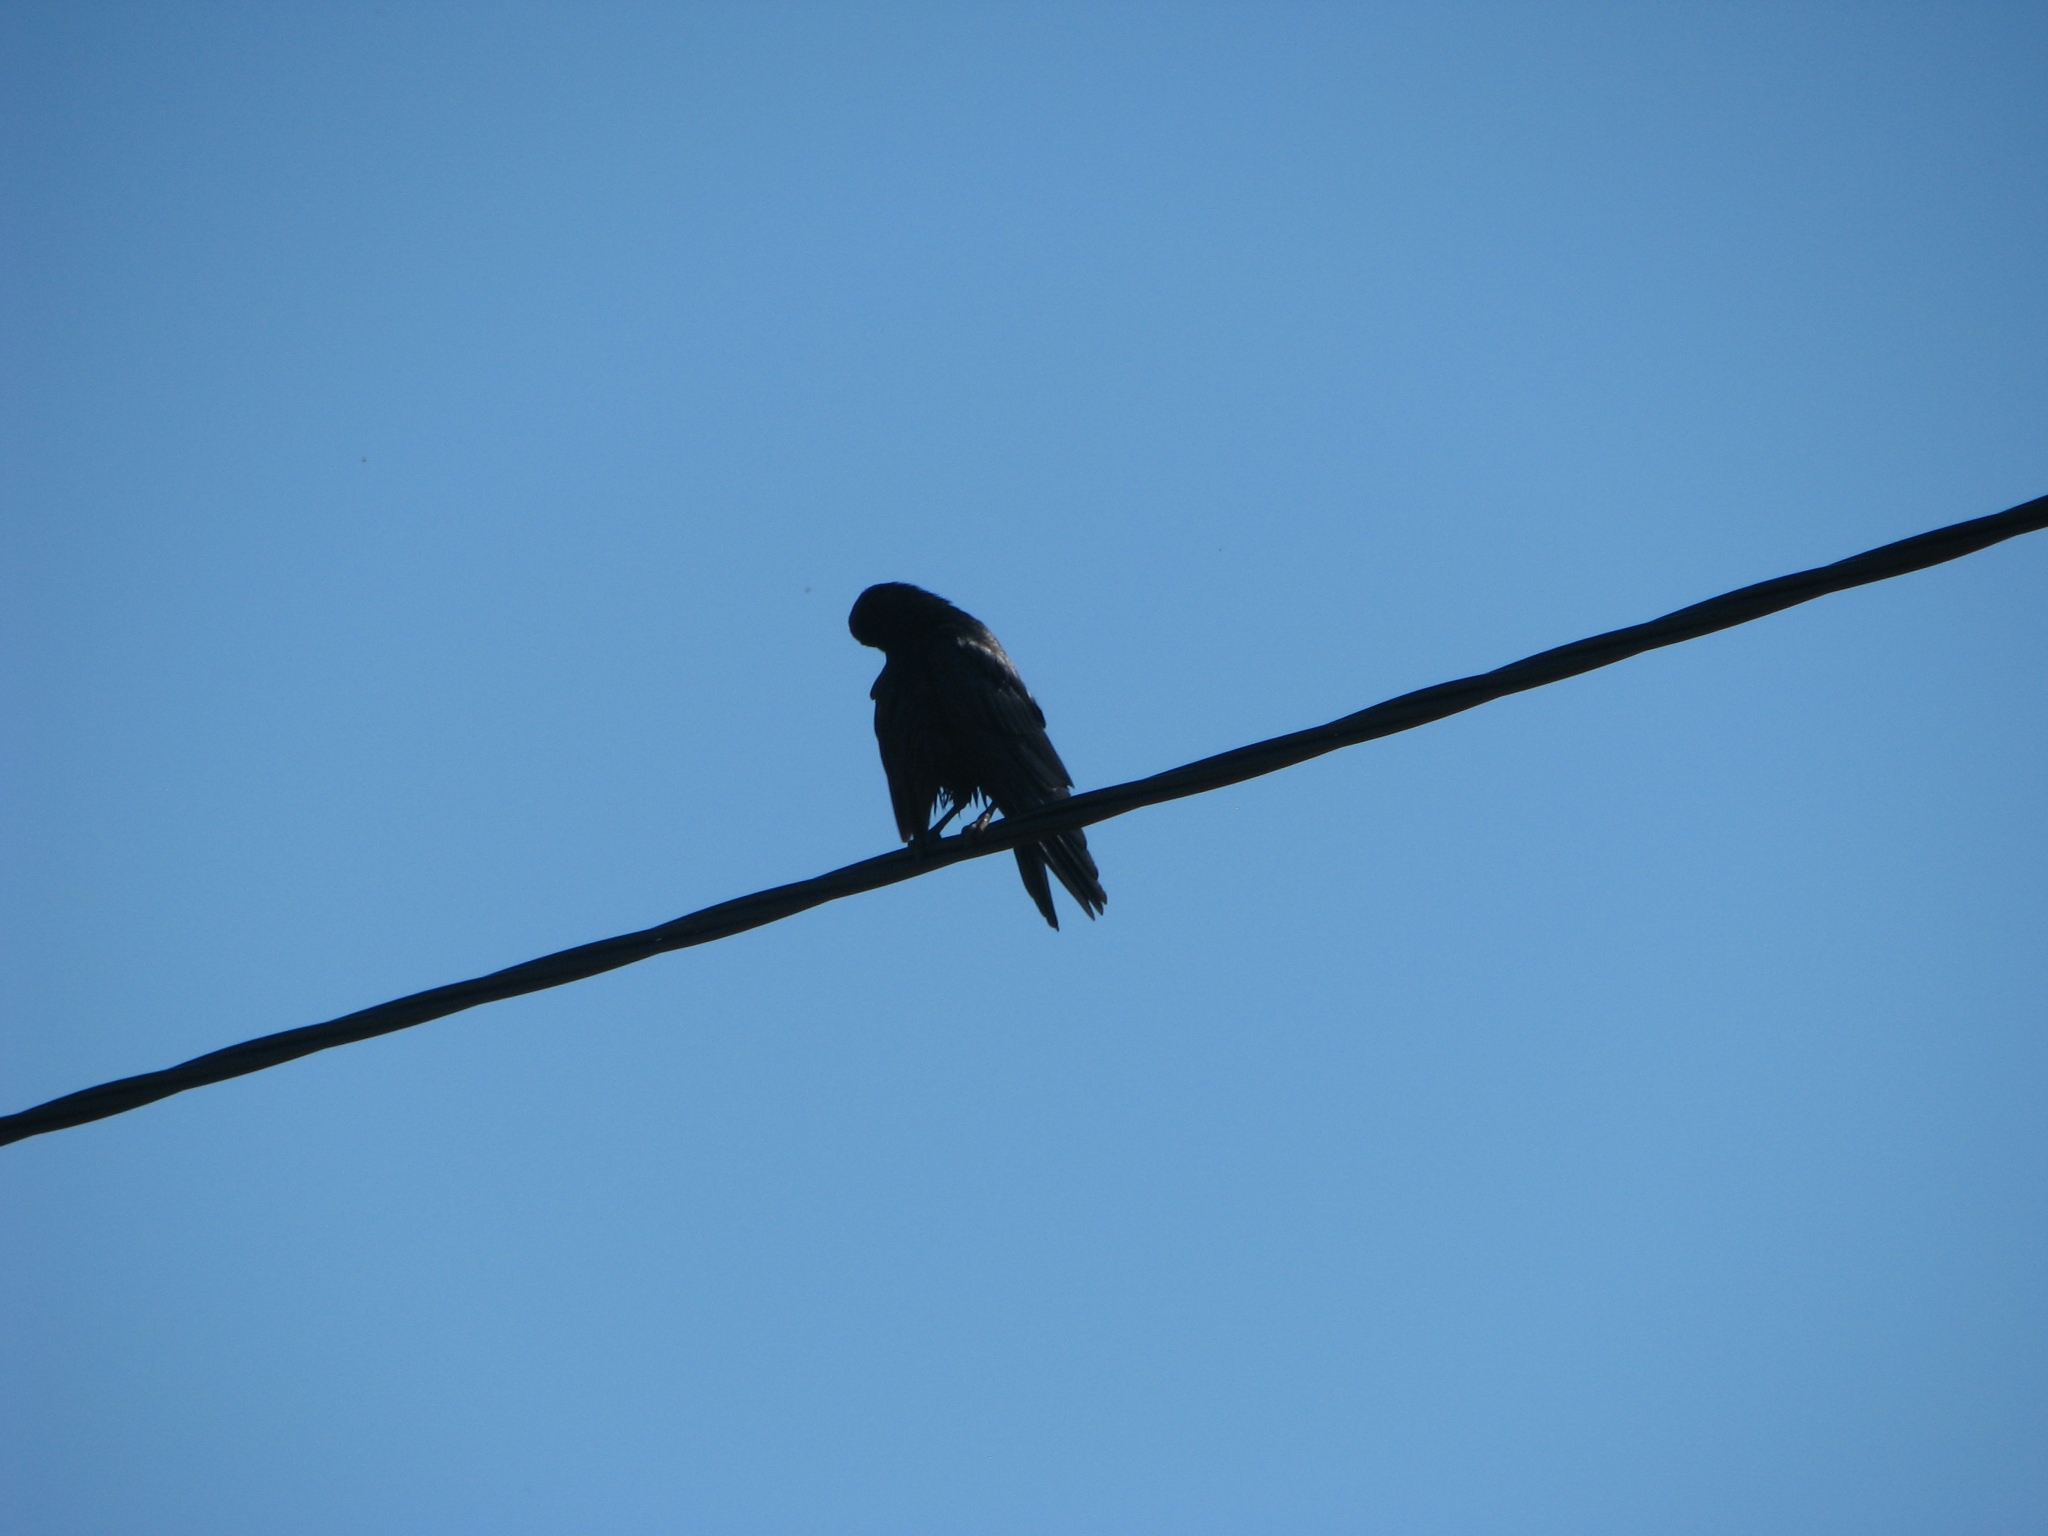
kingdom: Animalia
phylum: Chordata
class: Aves
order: Passeriformes
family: Corvidae
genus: Corvus
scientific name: Corvus frugilegus
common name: Rook
